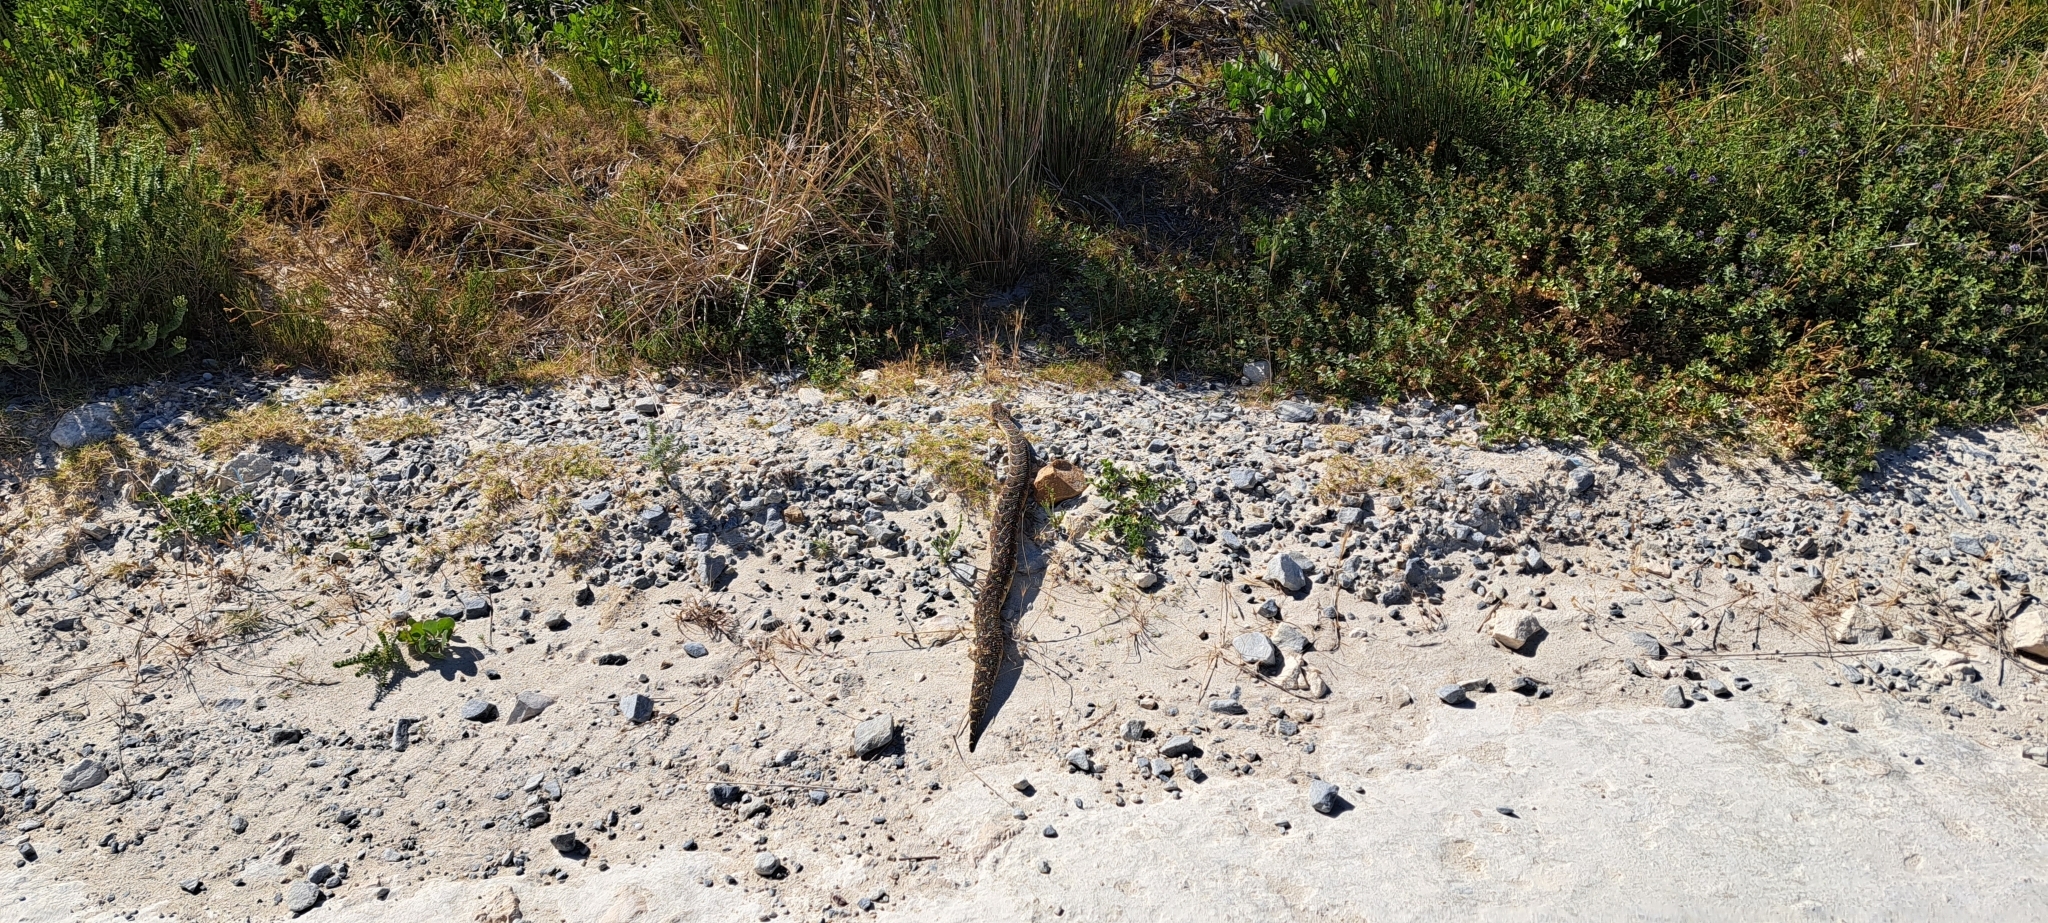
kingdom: Animalia
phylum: Chordata
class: Squamata
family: Viperidae
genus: Bitis
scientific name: Bitis arietans
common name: Puff adder
